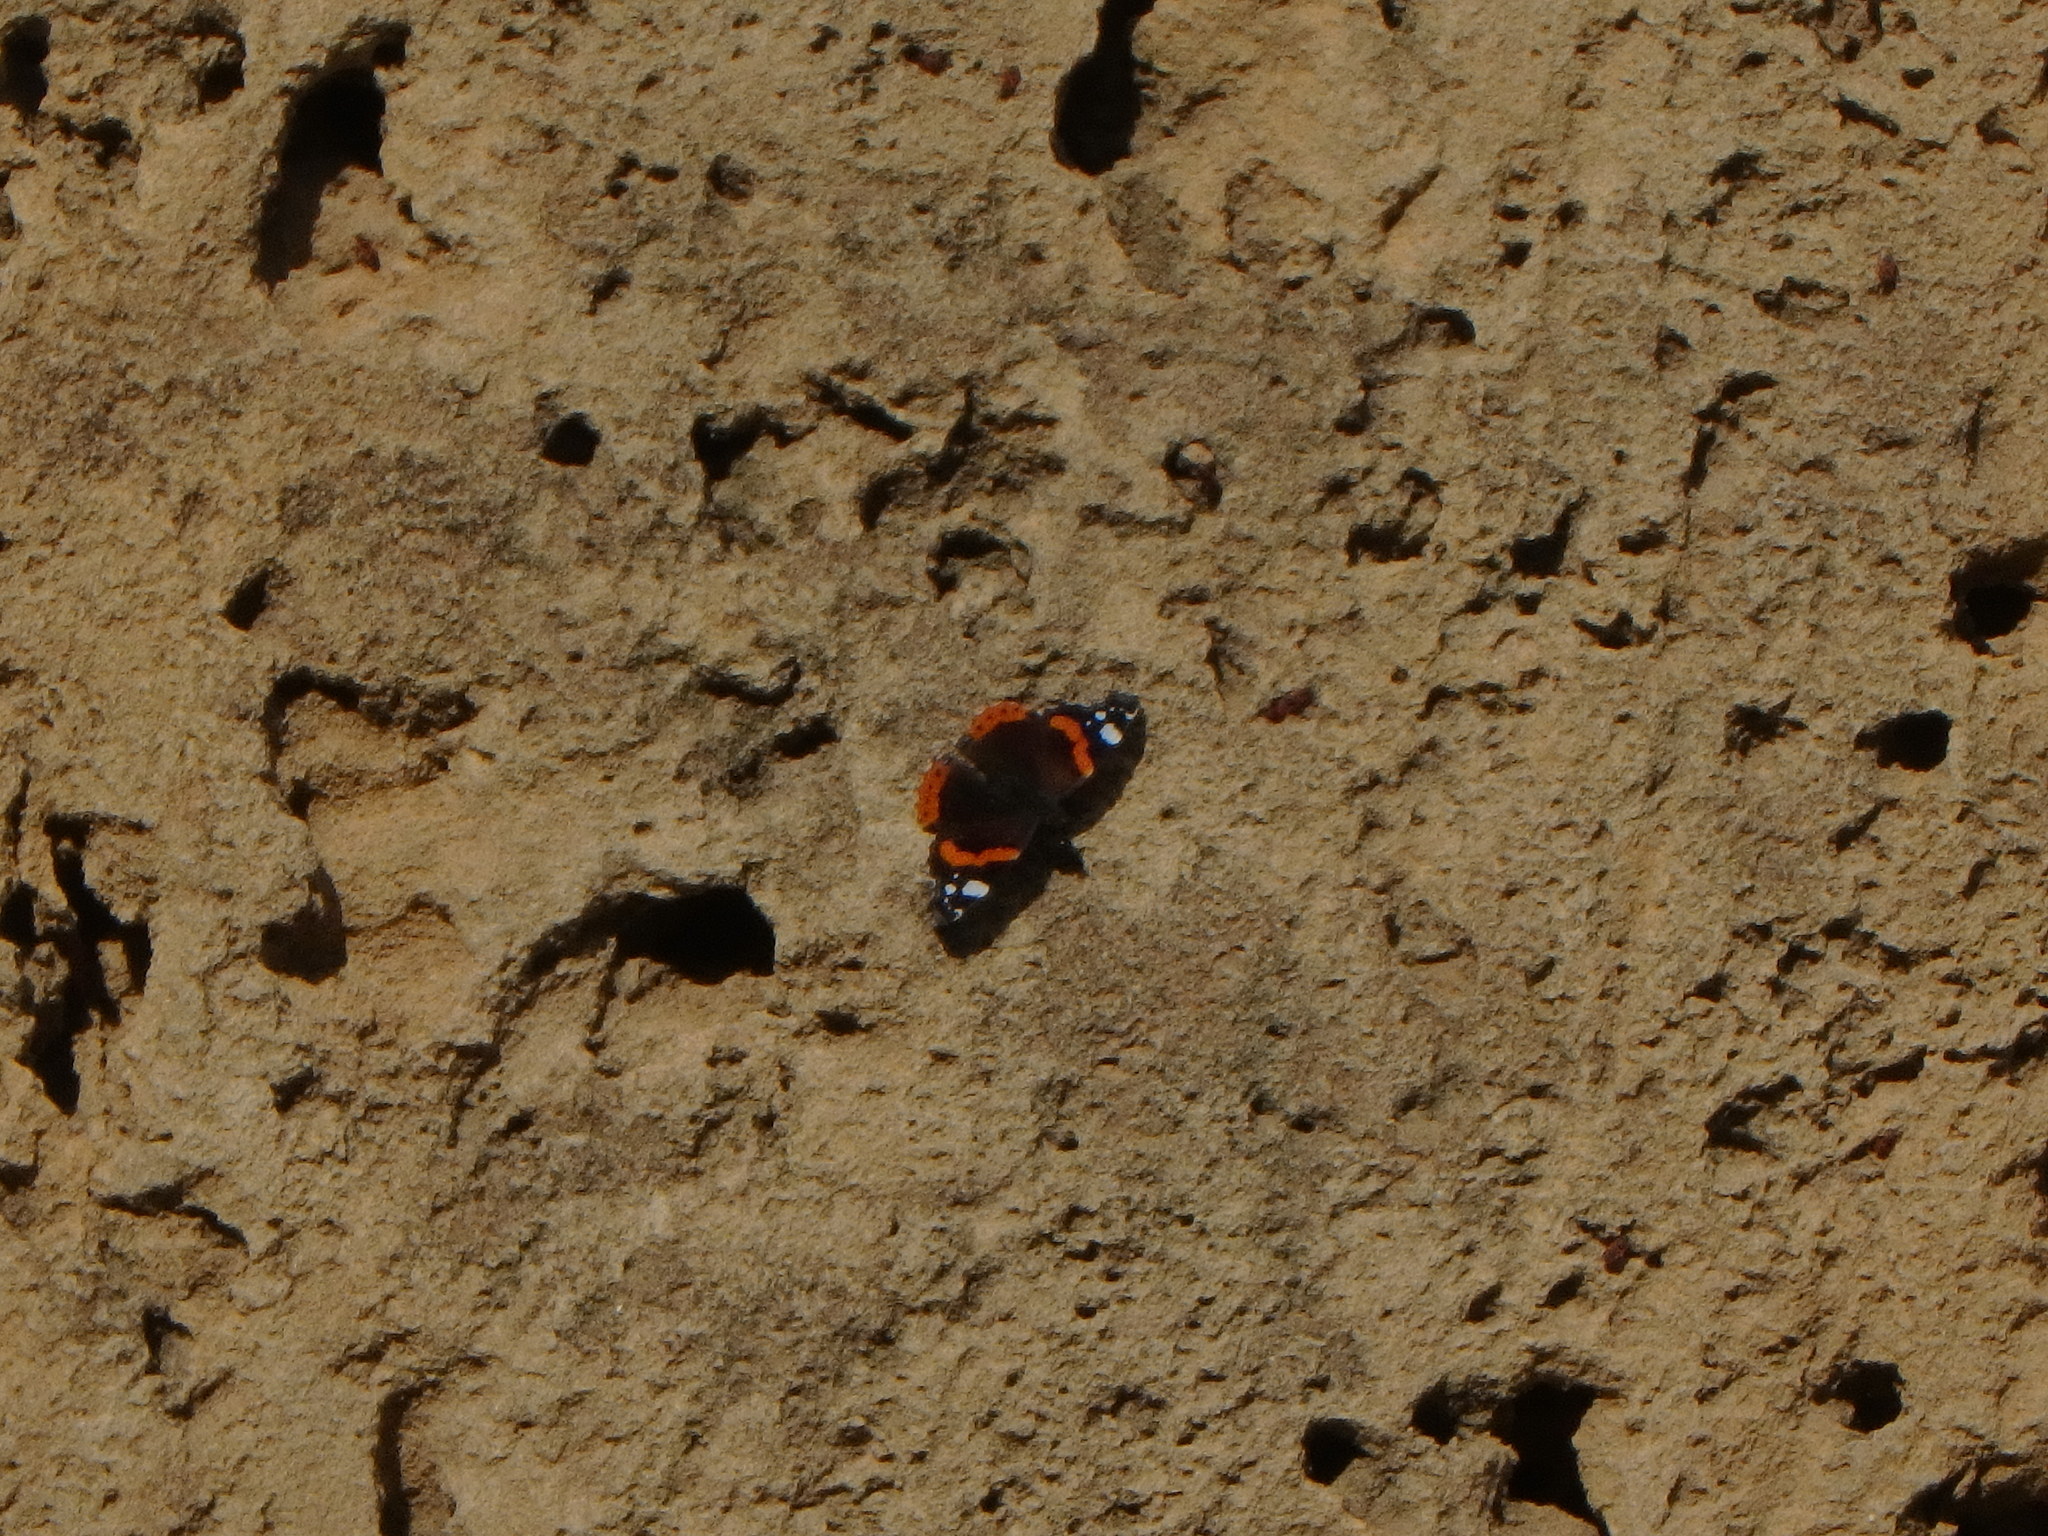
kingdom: Animalia
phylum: Arthropoda
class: Insecta
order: Lepidoptera
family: Nymphalidae
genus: Vanessa
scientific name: Vanessa atalanta
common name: Red admiral
